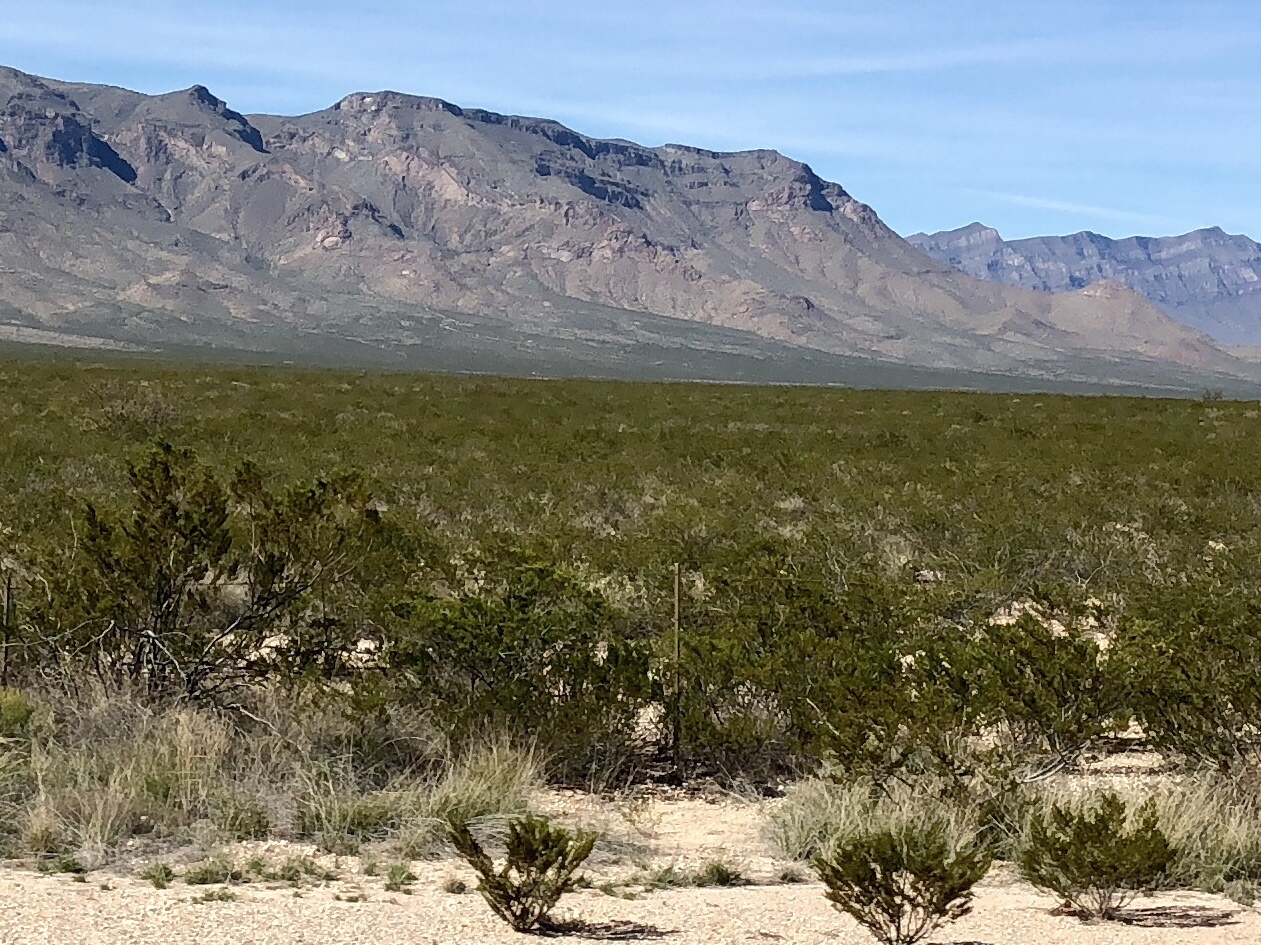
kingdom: Plantae
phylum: Tracheophyta
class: Magnoliopsida
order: Zygophyllales
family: Zygophyllaceae
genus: Larrea
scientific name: Larrea tridentata
